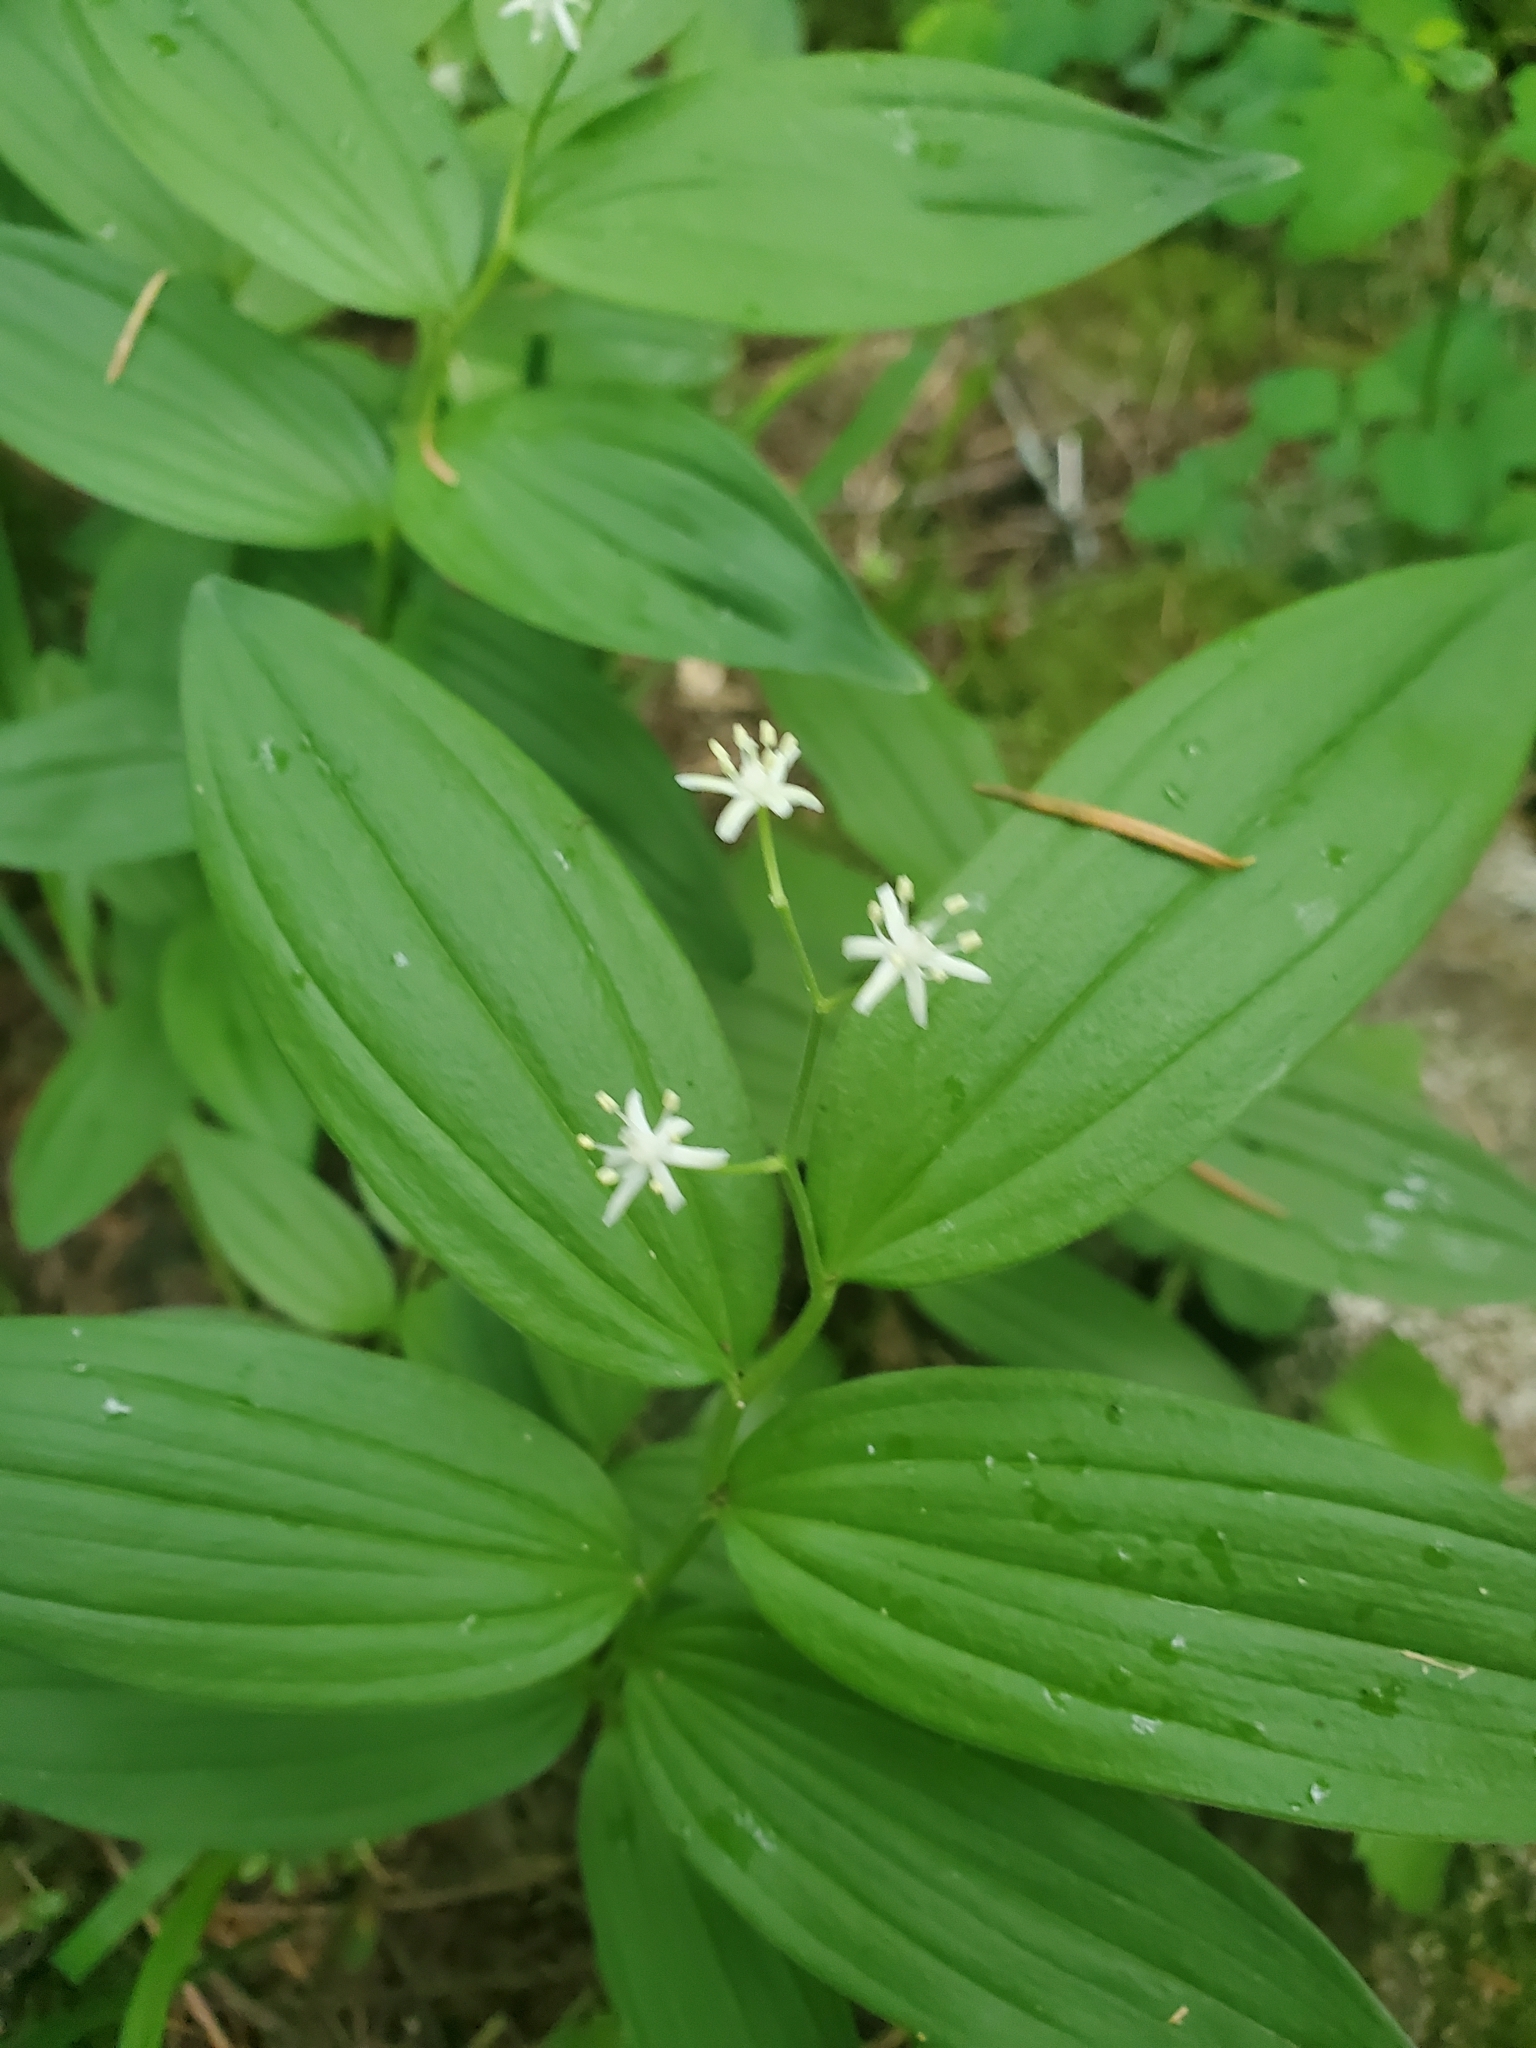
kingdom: Plantae
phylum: Tracheophyta
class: Liliopsida
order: Asparagales
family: Asparagaceae
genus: Maianthemum
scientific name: Maianthemum stellatum
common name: Little false solomon's seal
